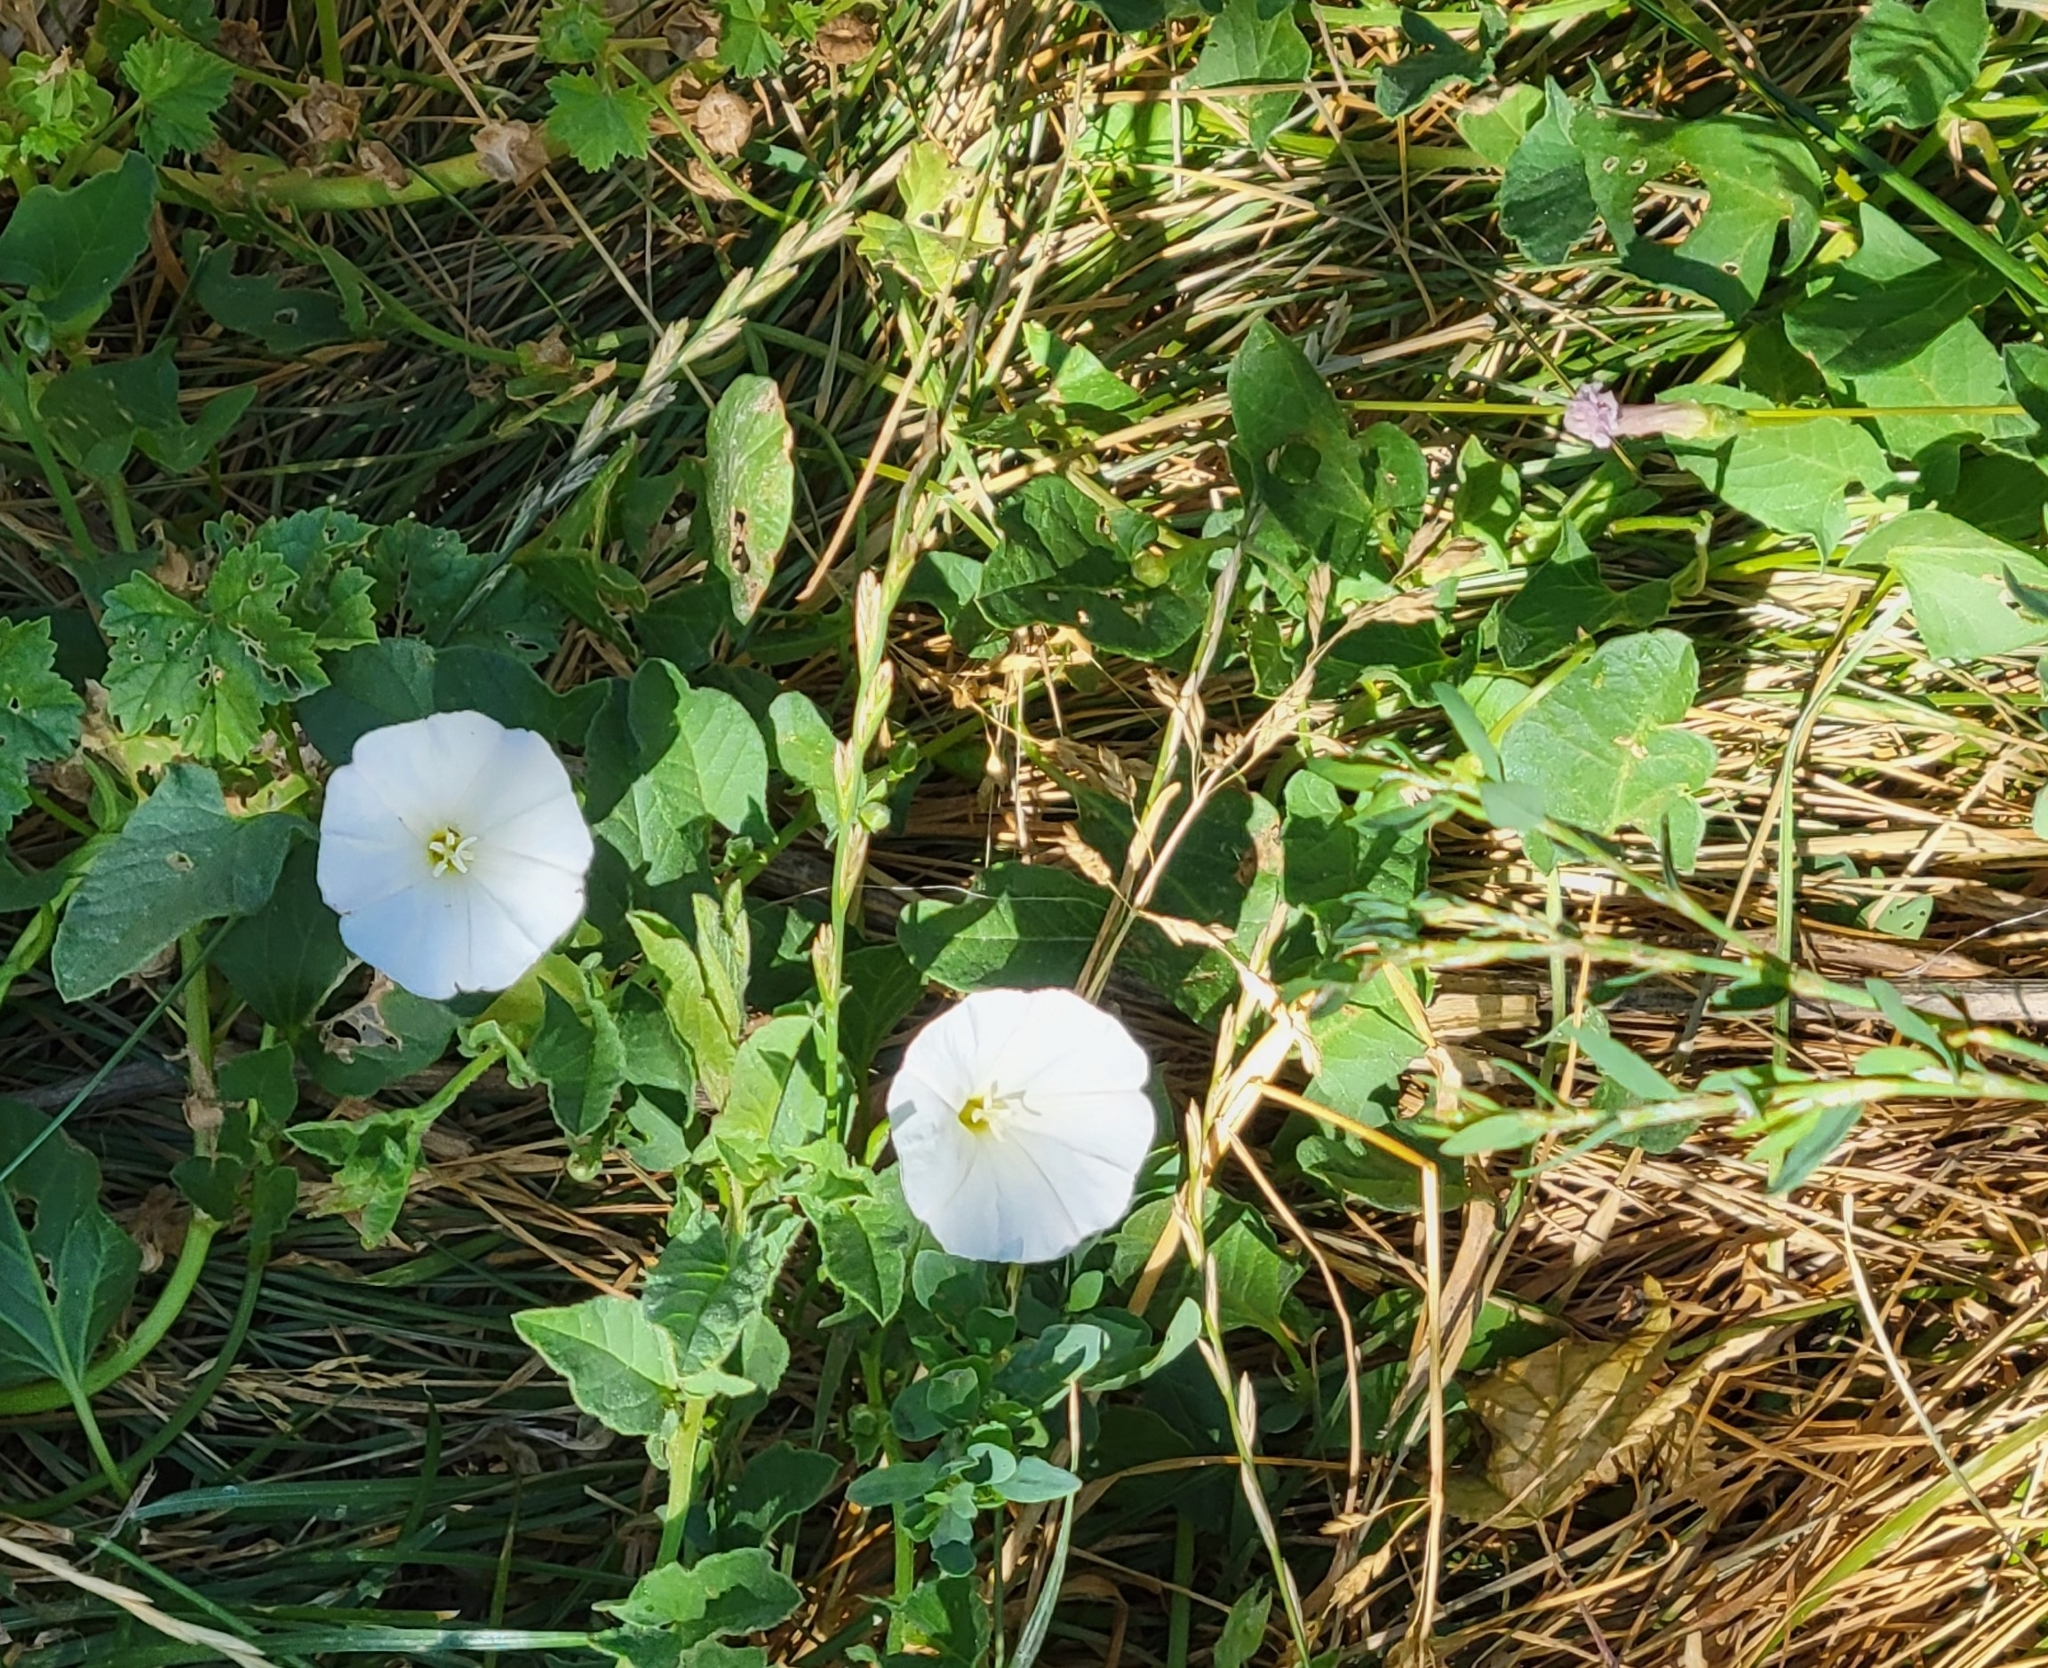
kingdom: Plantae
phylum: Tracheophyta
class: Magnoliopsida
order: Solanales
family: Convolvulaceae
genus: Convolvulus
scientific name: Convolvulus arvensis
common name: Field bindweed
